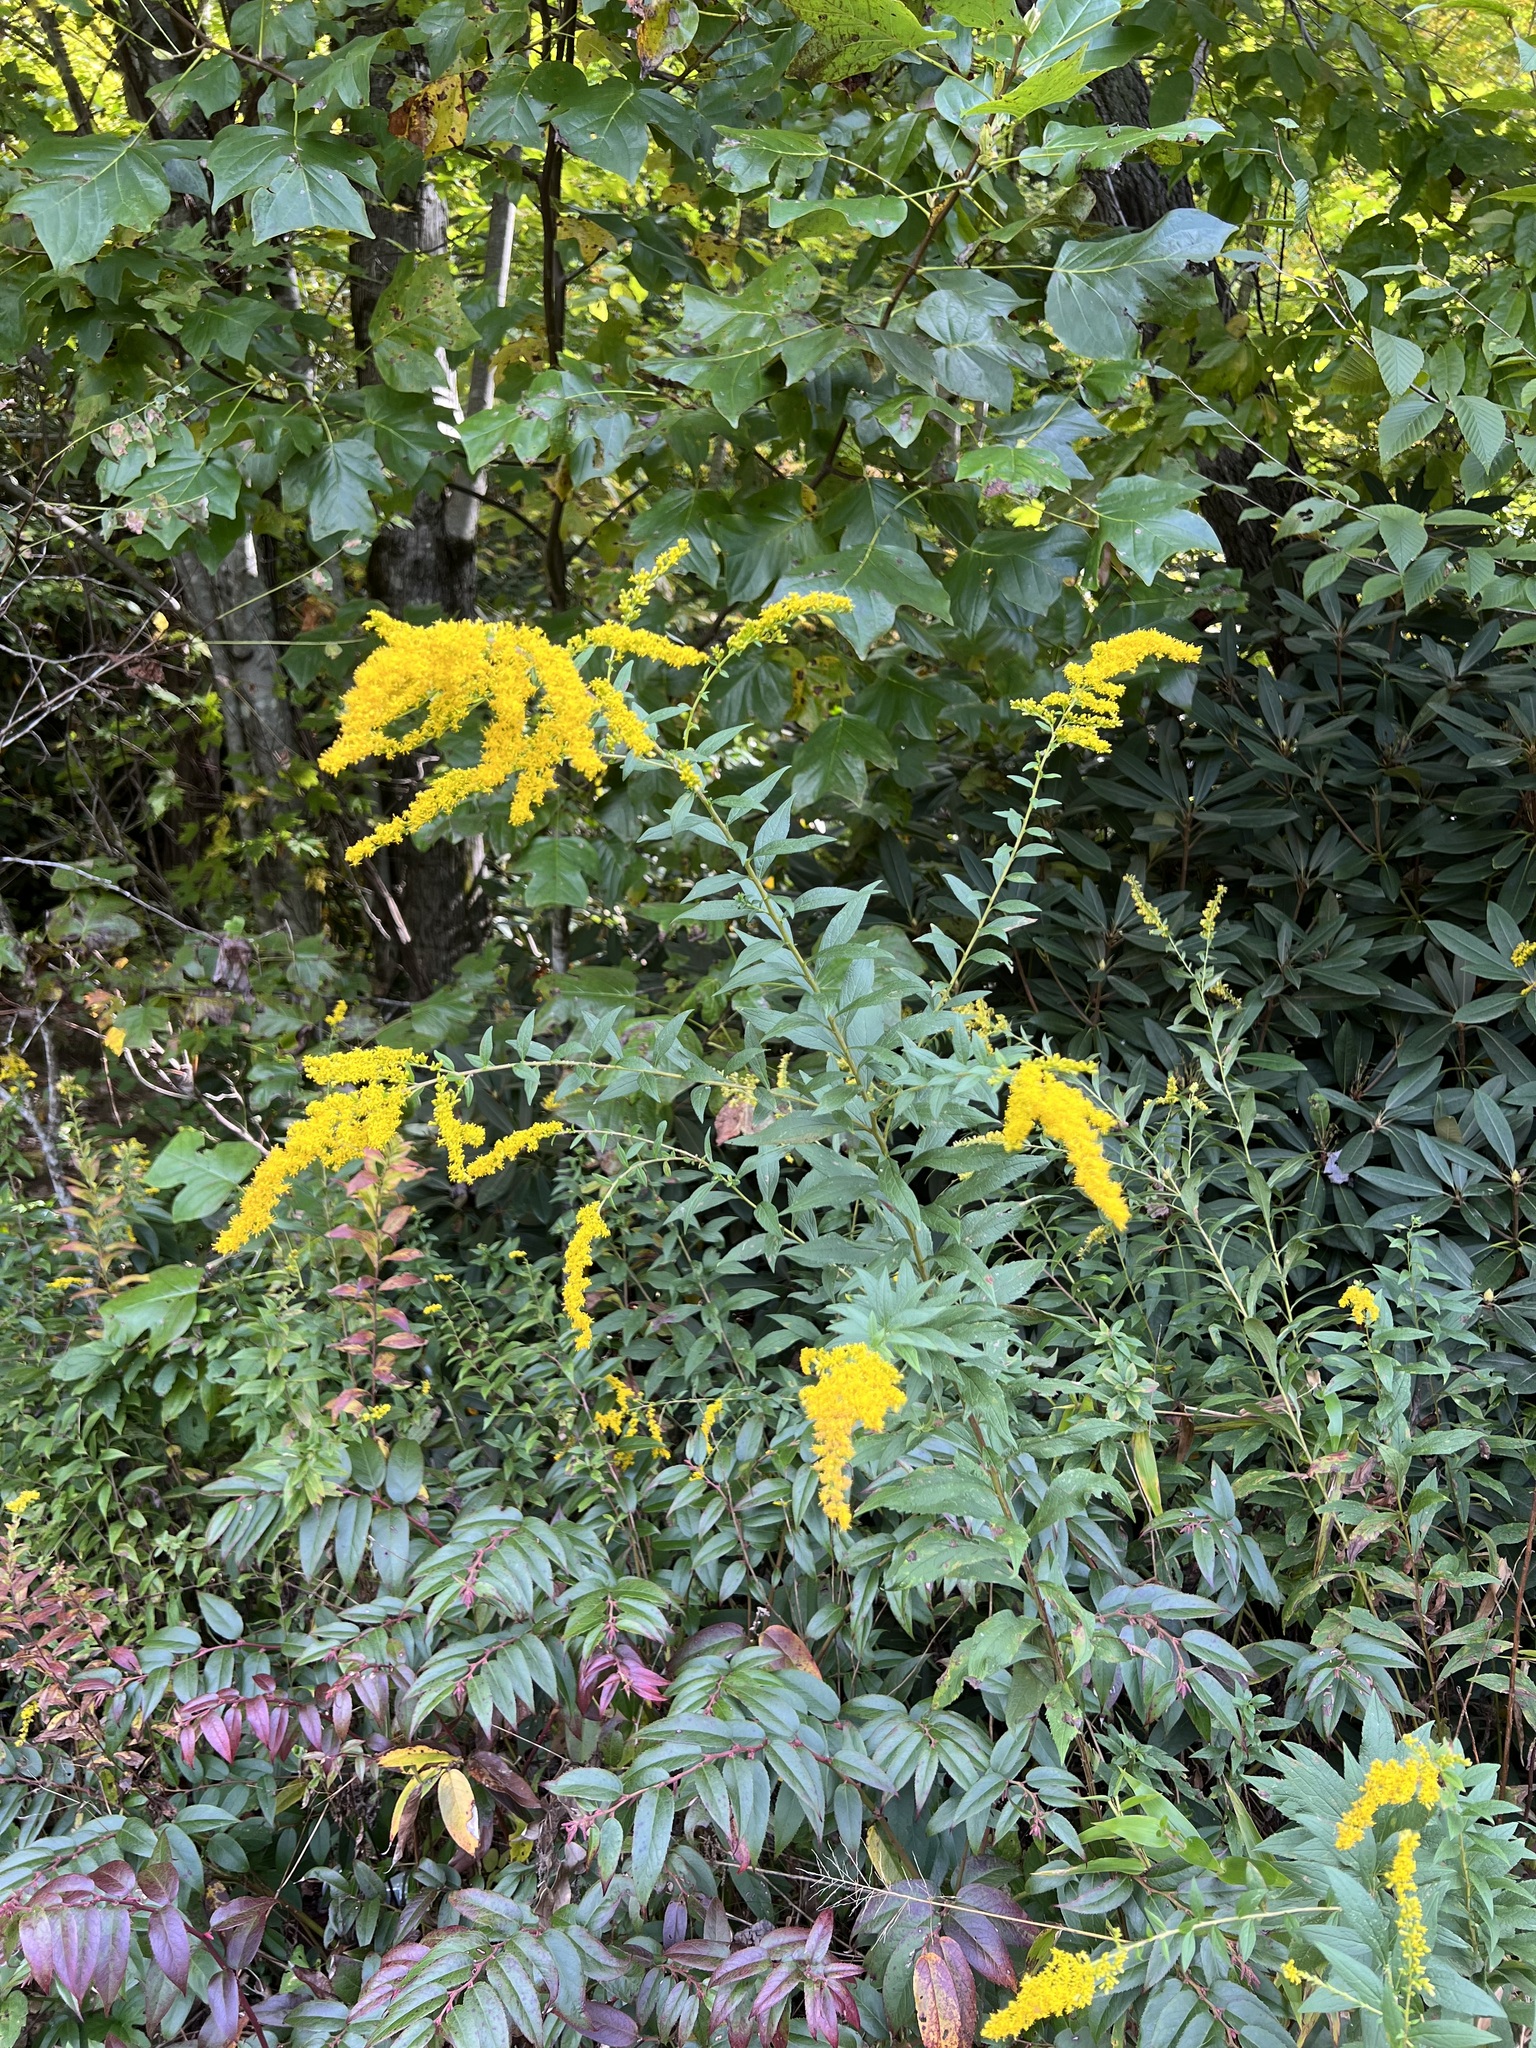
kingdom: Plantae
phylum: Tracheophyta
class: Magnoliopsida
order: Asterales
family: Asteraceae
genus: Solidago
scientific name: Solidago rugosa
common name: Rough-stemmed goldenrod
